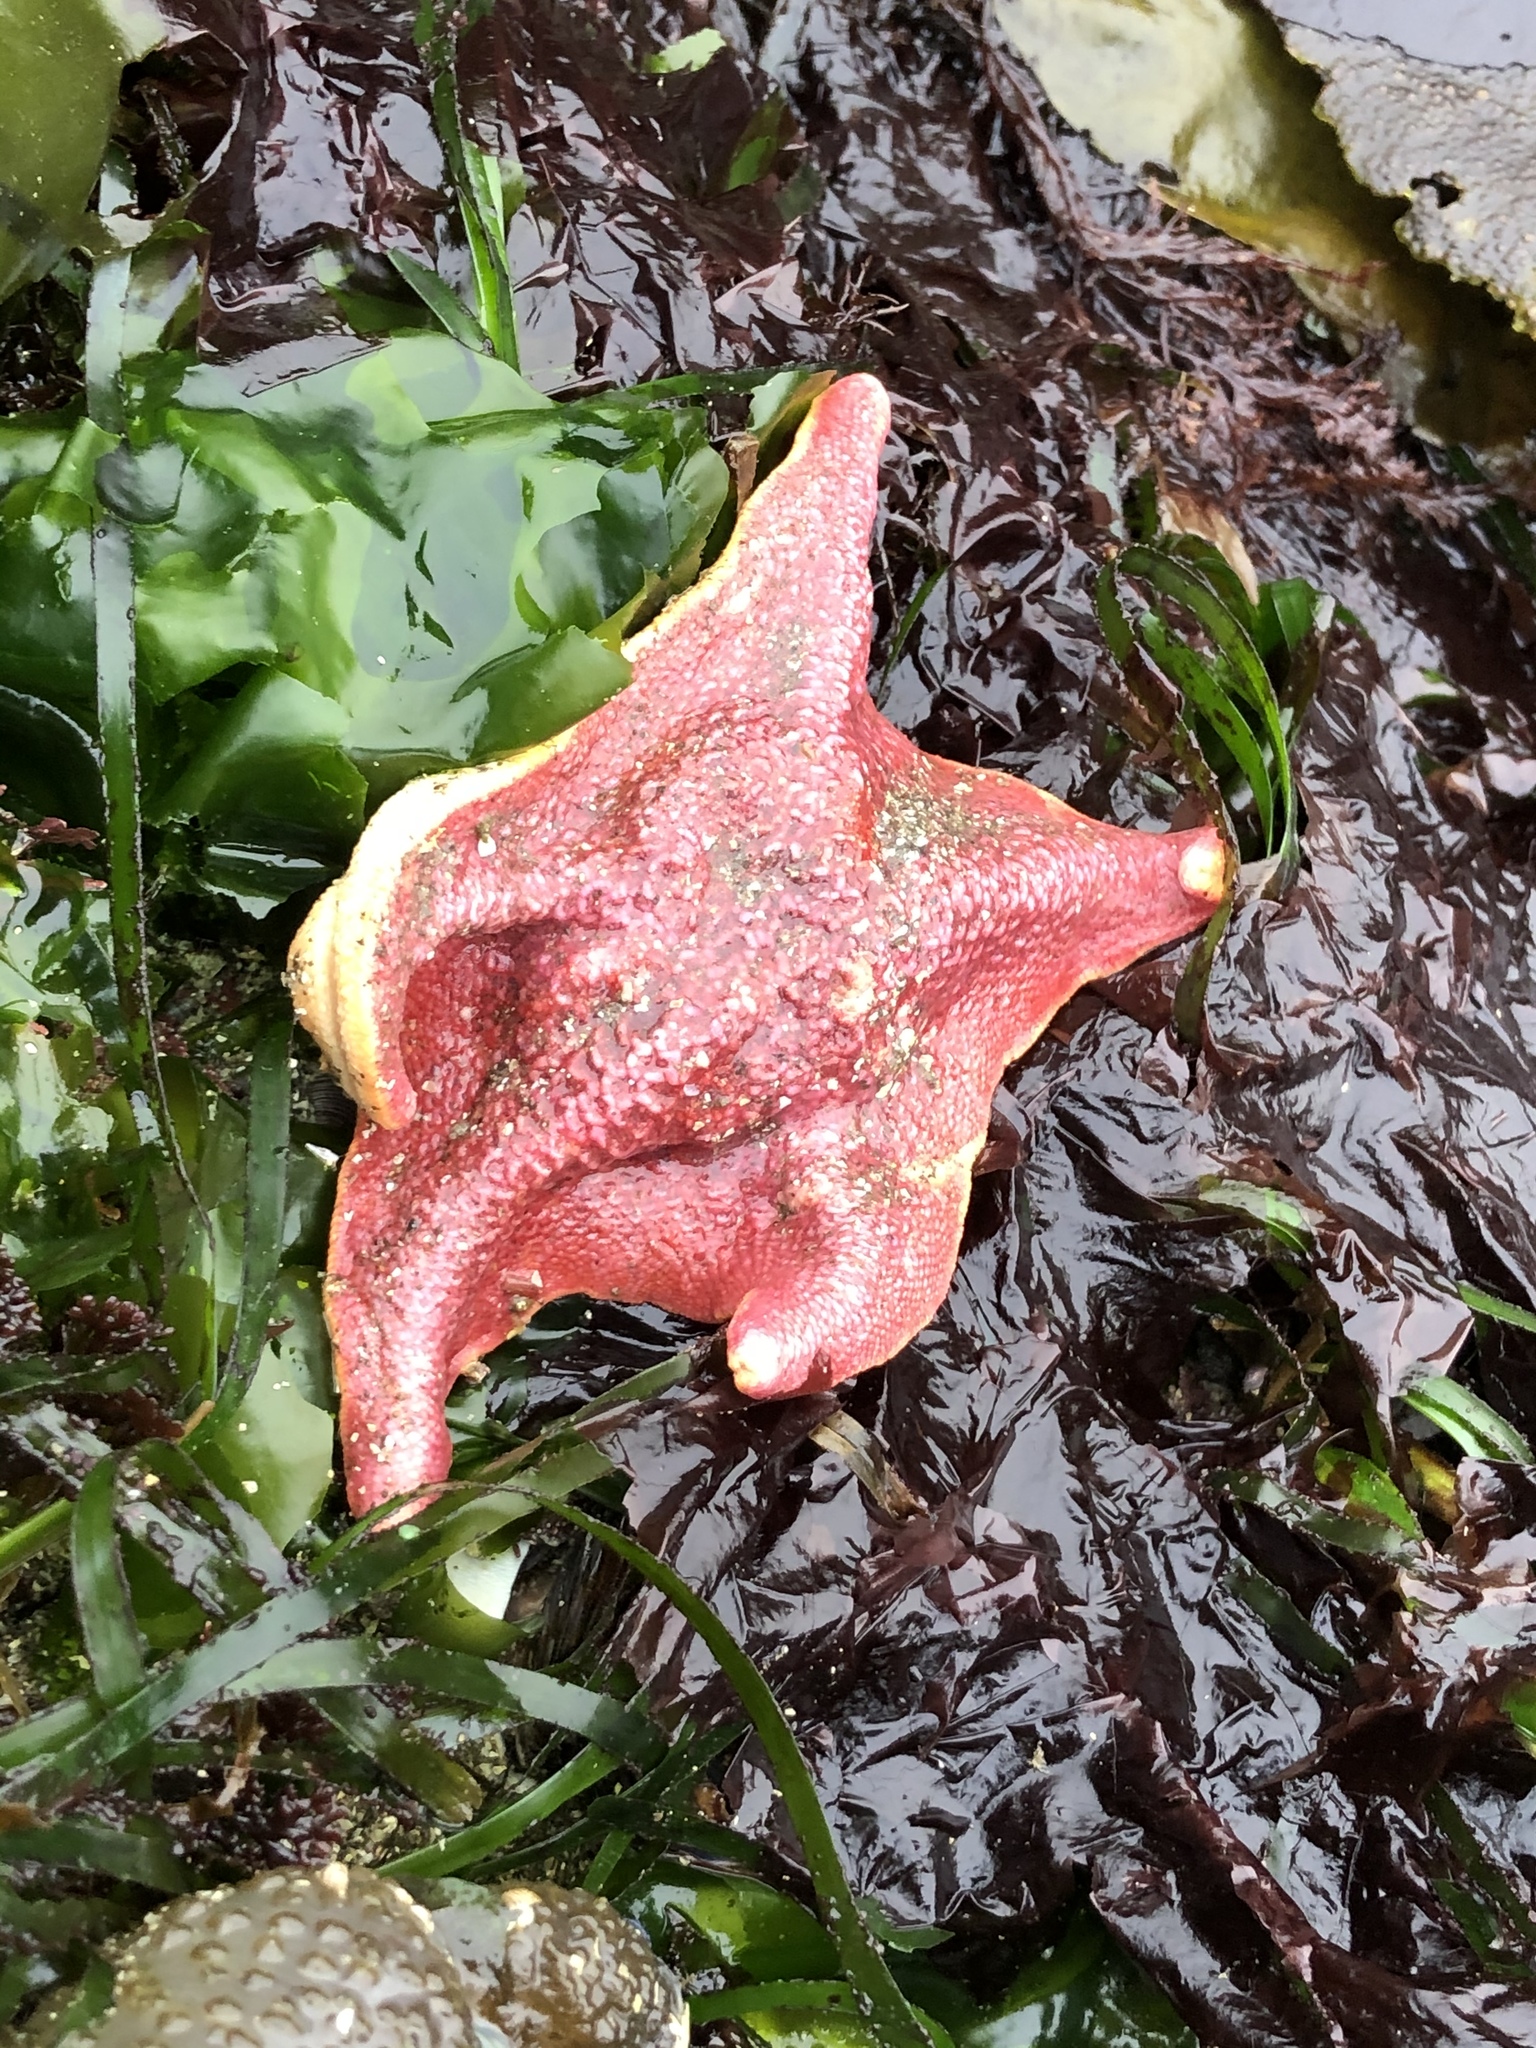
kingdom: Animalia
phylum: Echinodermata
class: Asteroidea
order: Valvatida
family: Asterinidae
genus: Patiria
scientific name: Patiria miniata
